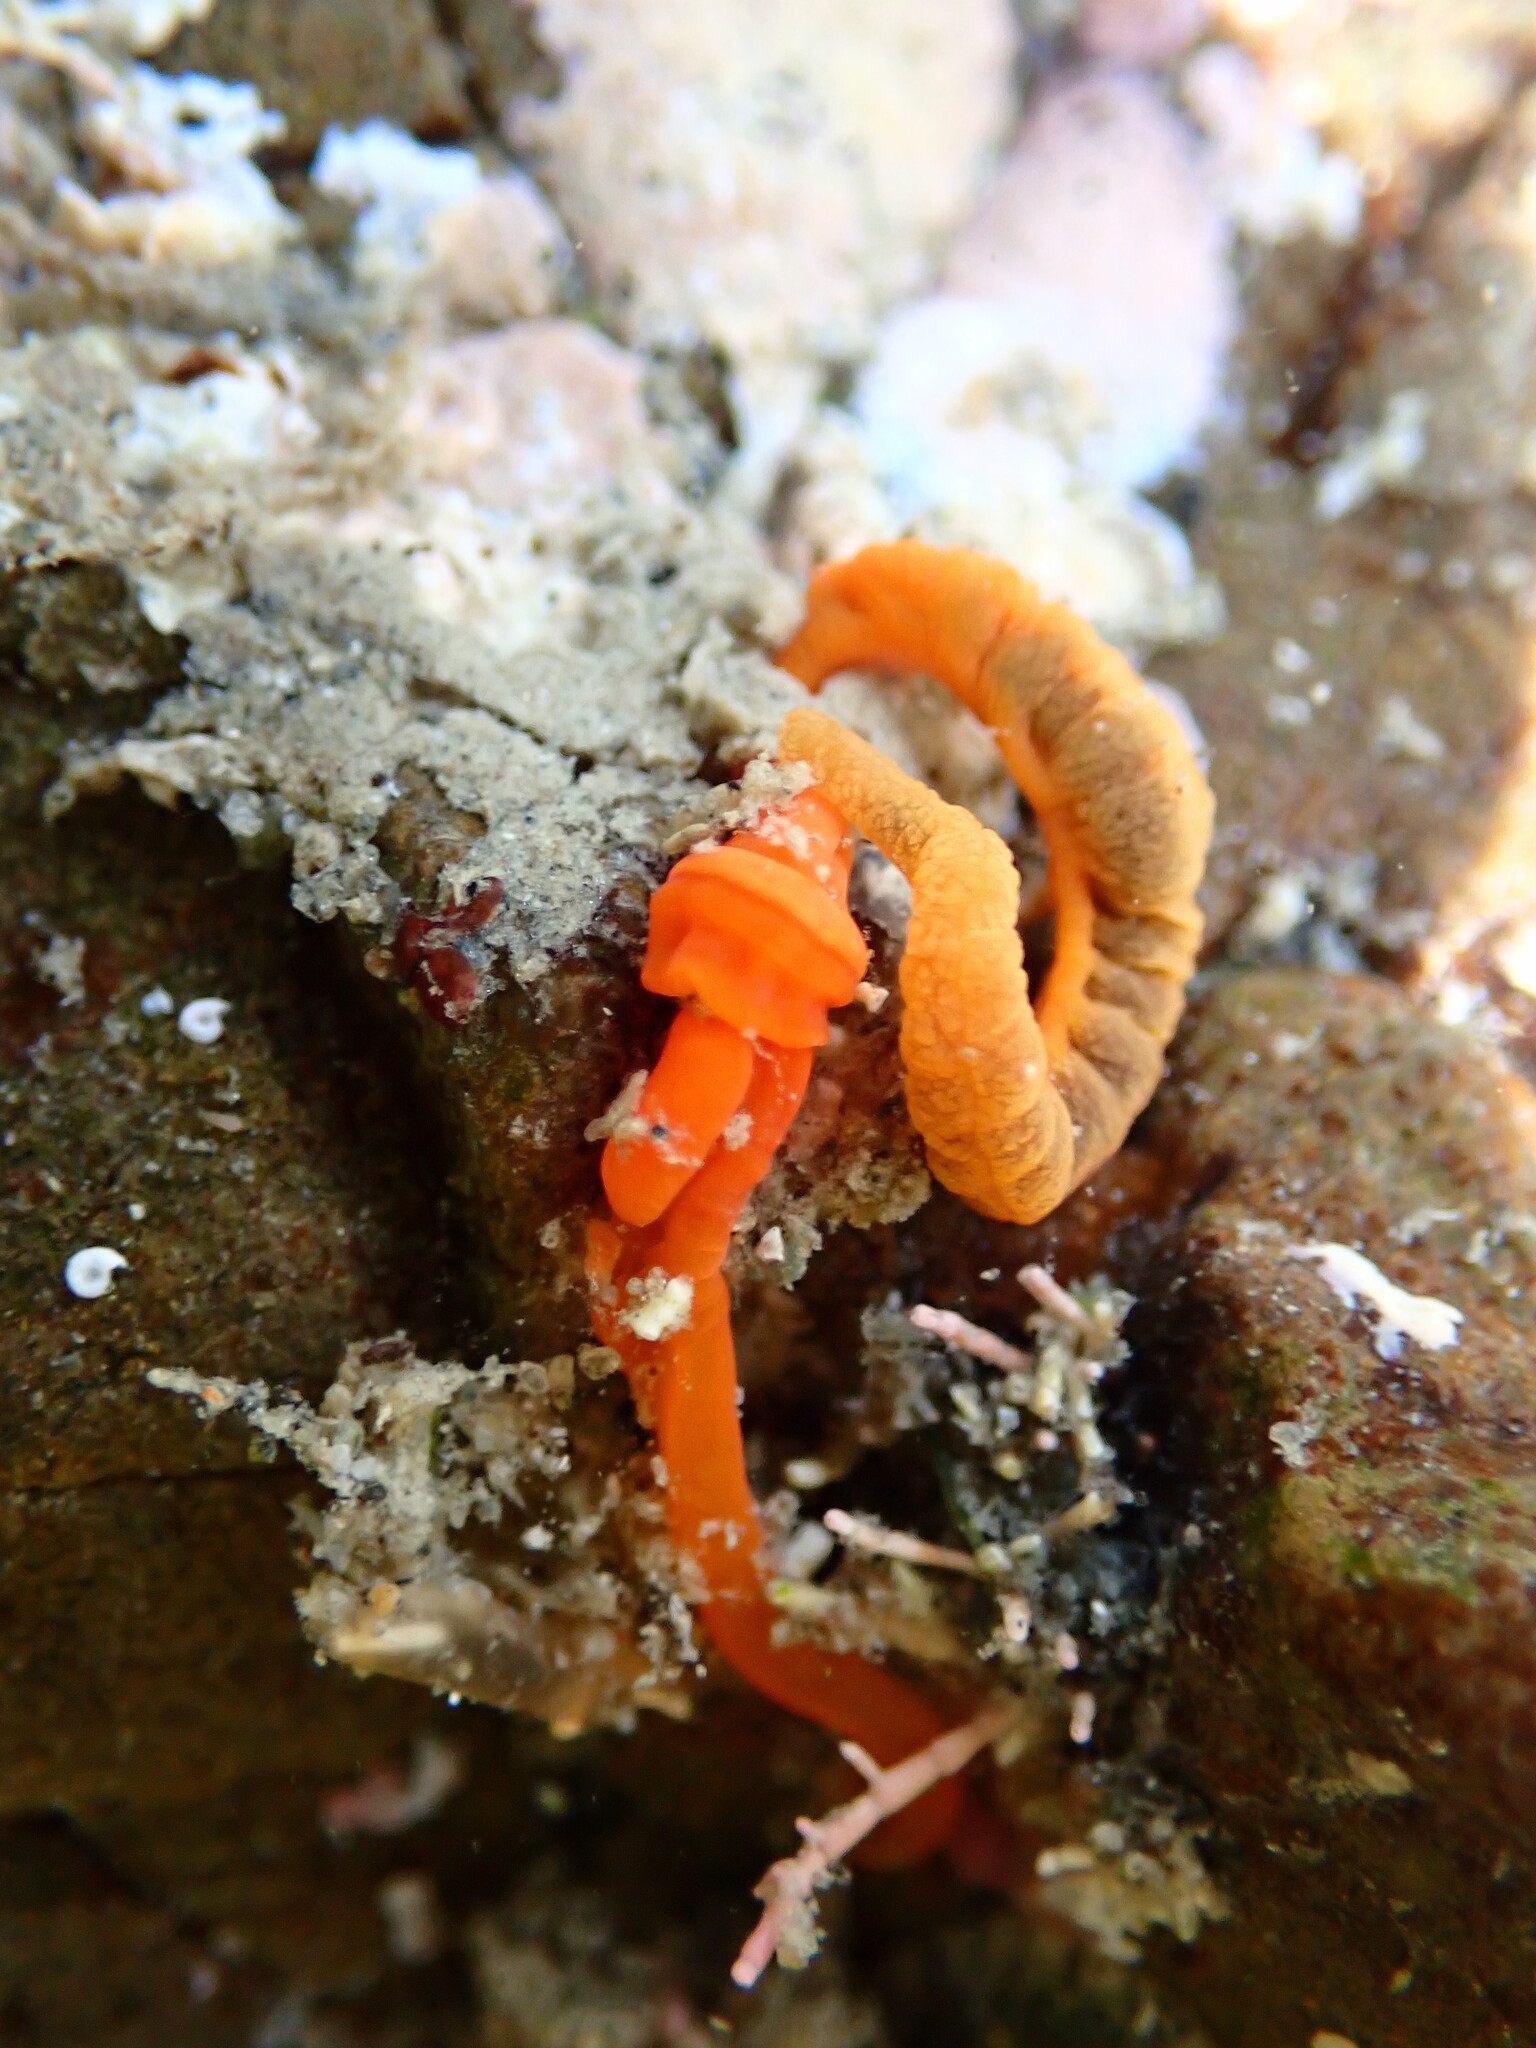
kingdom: Animalia
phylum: Hemichordata
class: Enteropneusta
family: Harrimaniidae
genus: Saccoglossus
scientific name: Saccoglossus otagoensis
